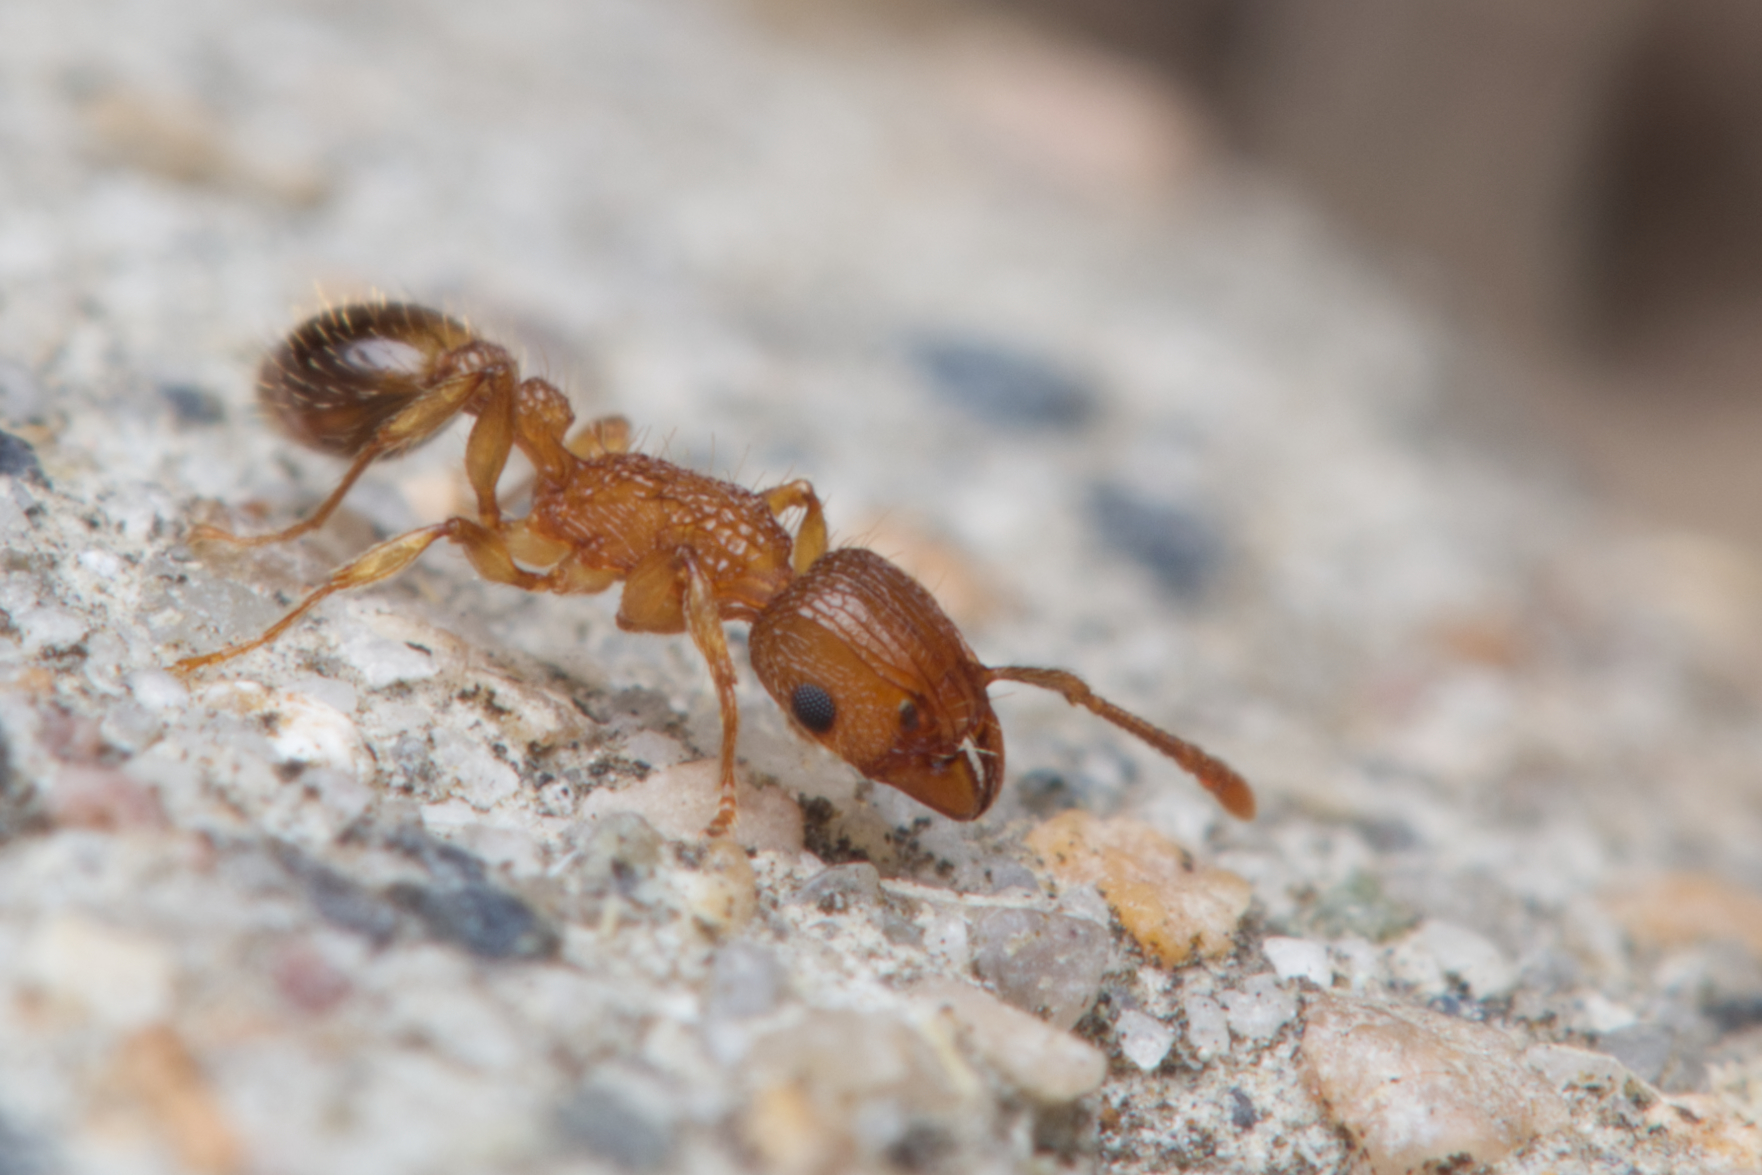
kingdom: Animalia
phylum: Arthropoda
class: Insecta
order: Hymenoptera
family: Formicidae
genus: Tetramorium
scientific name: Tetramorium bicarinatum
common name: Guinea ant
